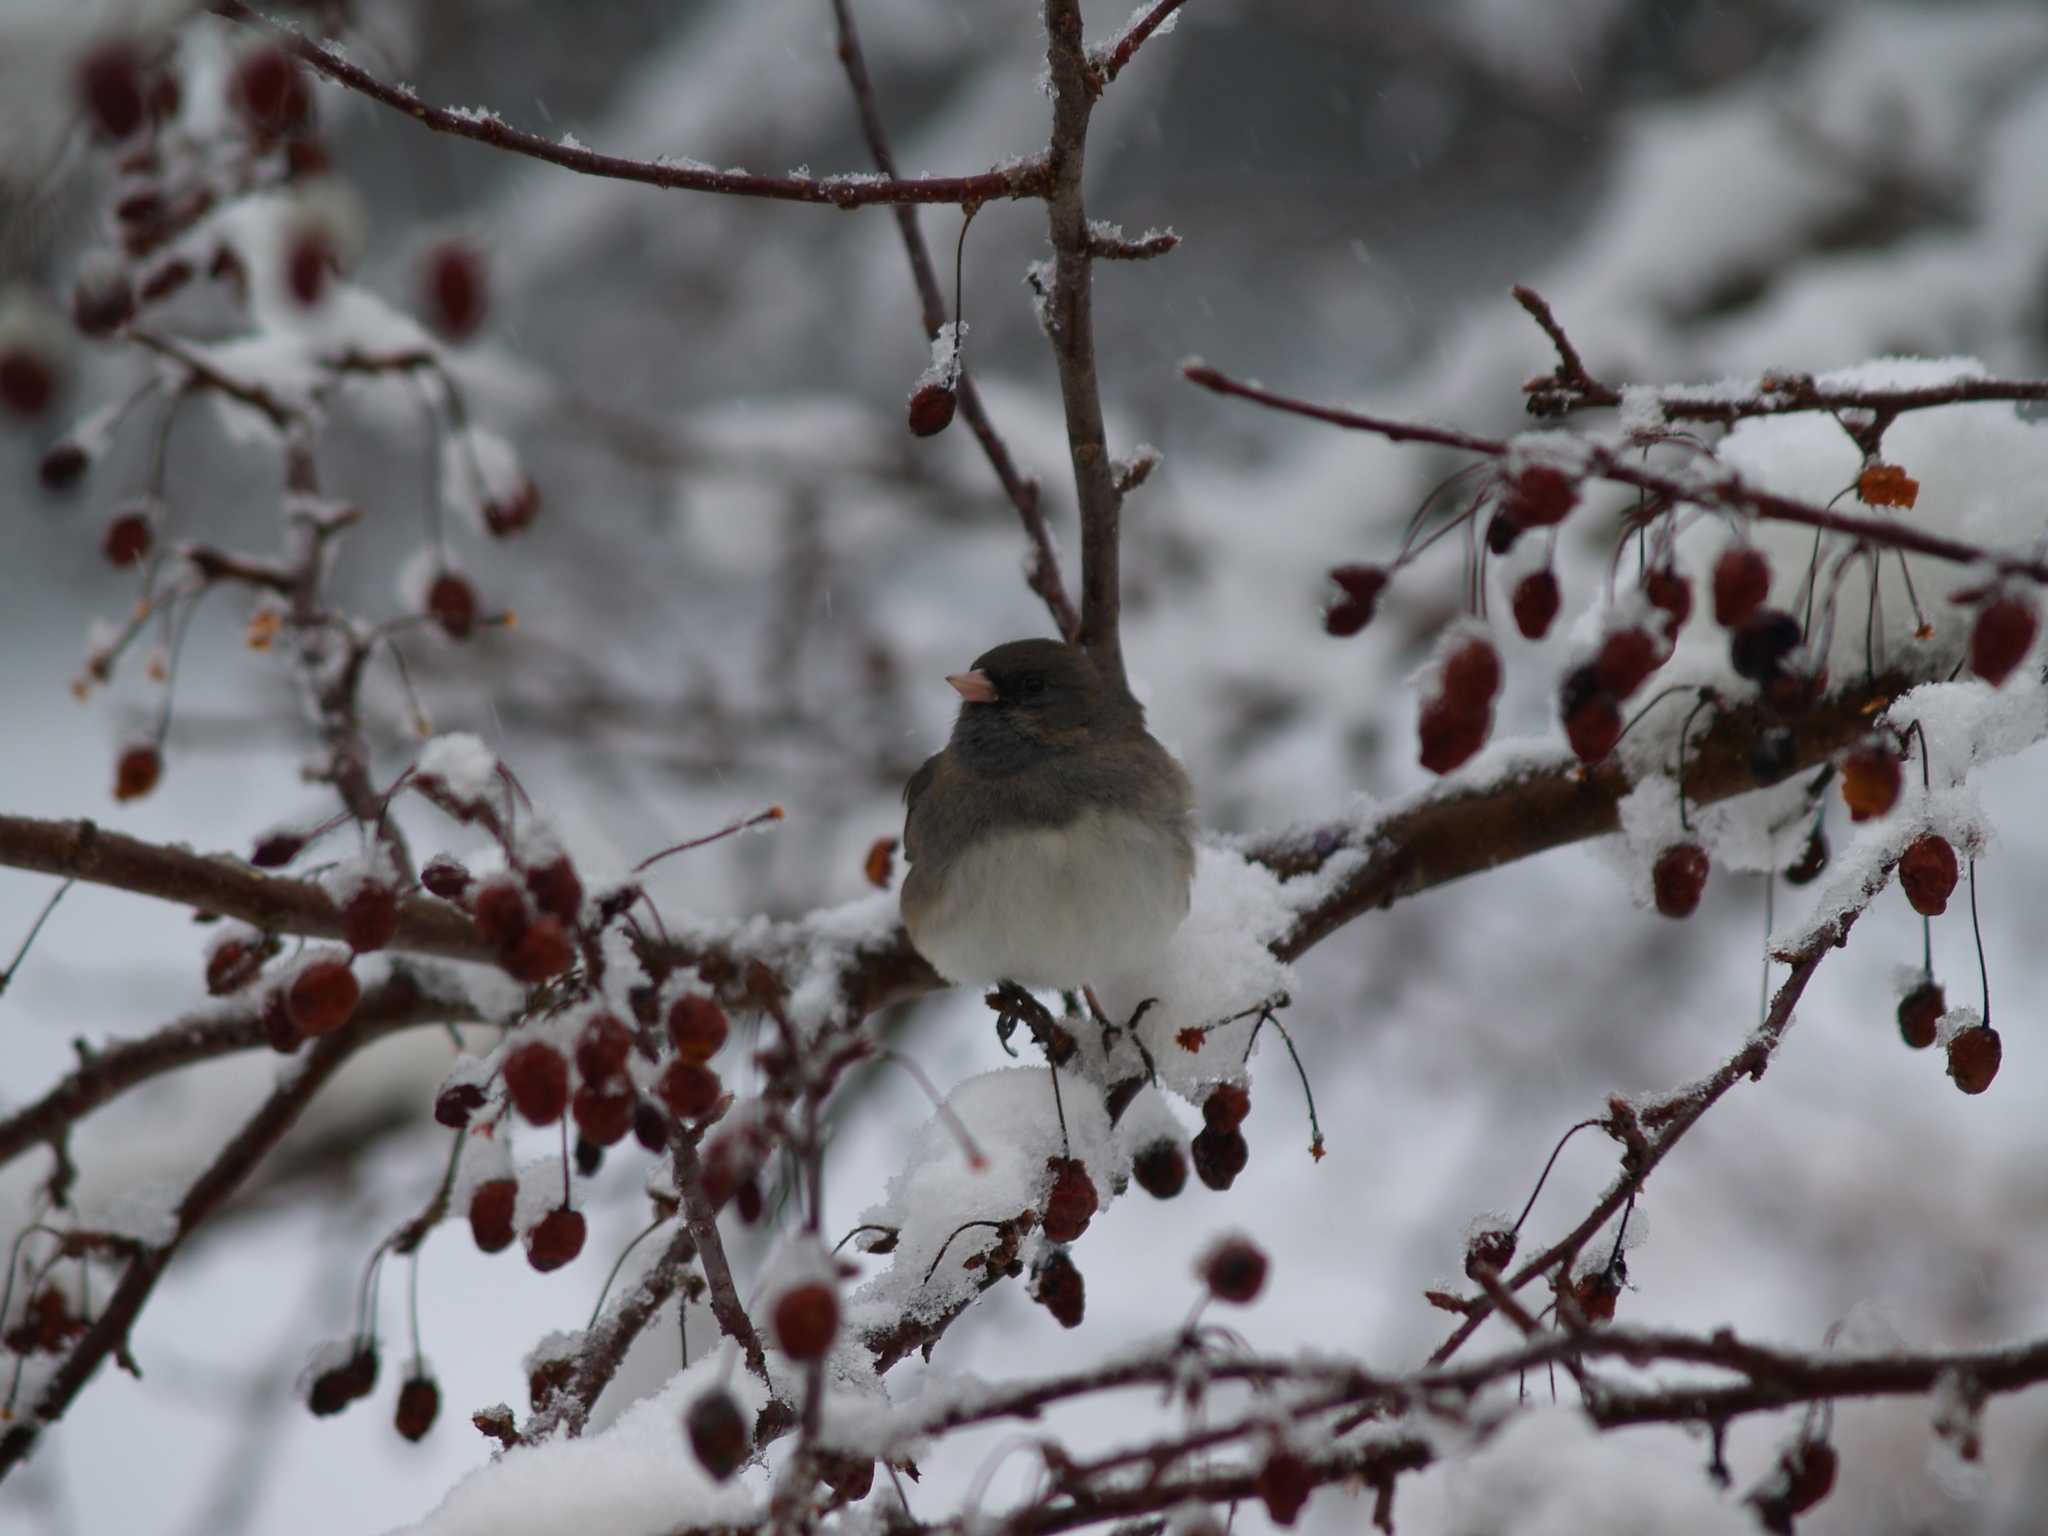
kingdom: Animalia
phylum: Chordata
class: Aves
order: Passeriformes
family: Passerellidae
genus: Junco
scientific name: Junco hyemalis
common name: Dark-eyed junco
